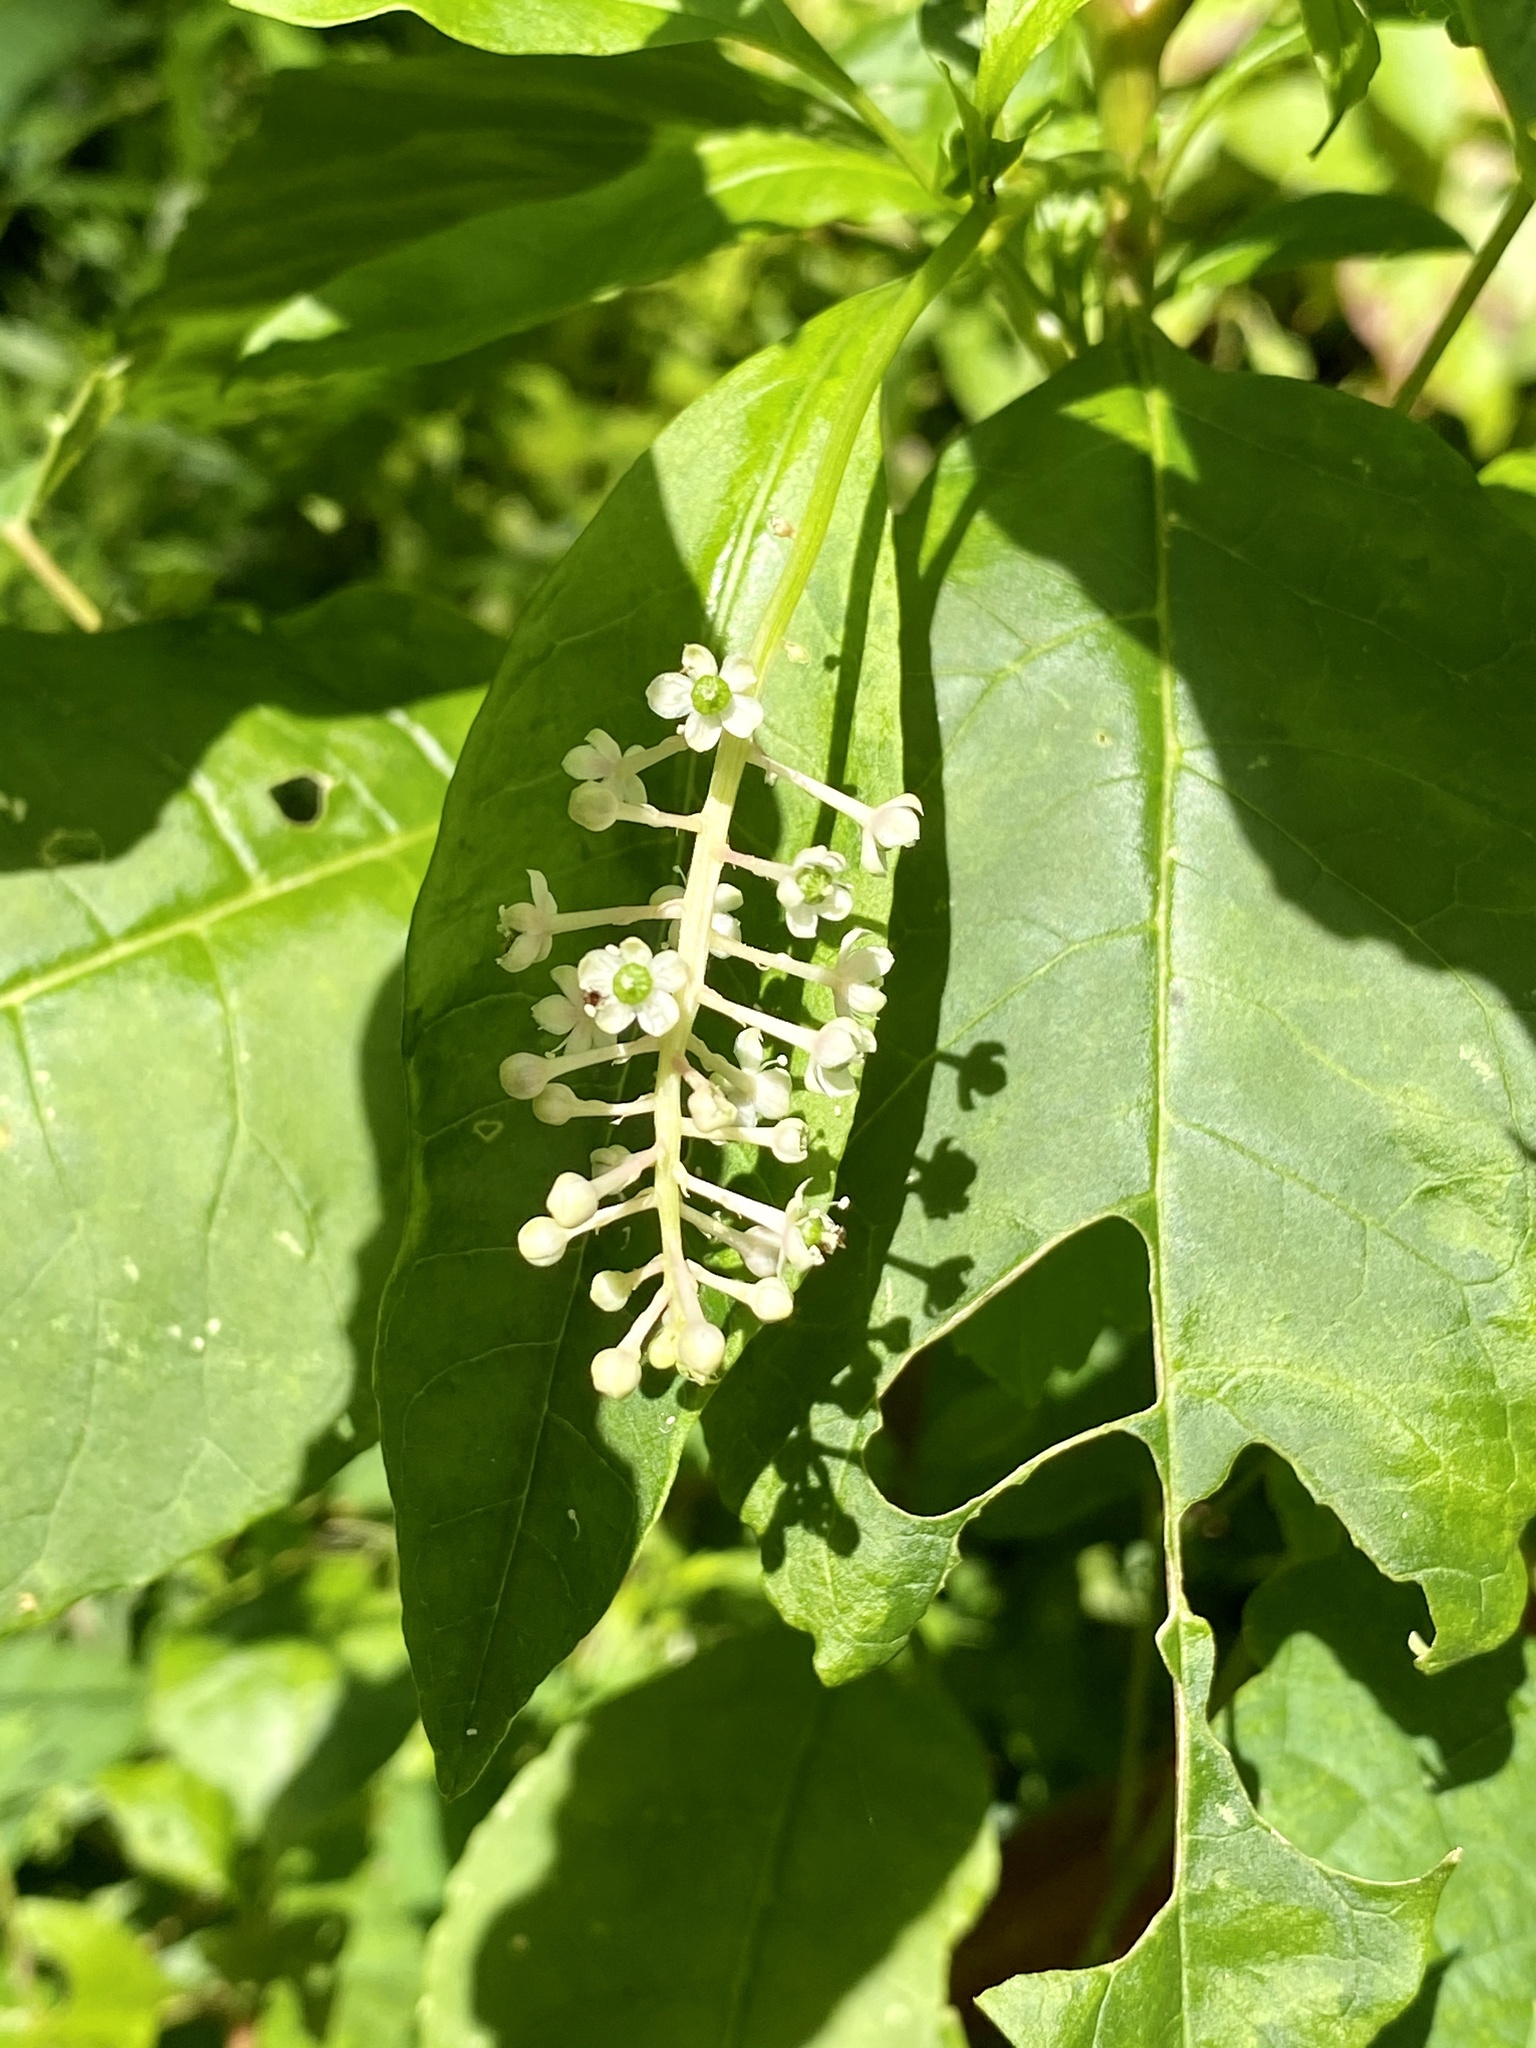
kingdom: Plantae
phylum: Tracheophyta
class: Magnoliopsida
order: Caryophyllales
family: Phytolaccaceae
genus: Phytolacca
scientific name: Phytolacca americana
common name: American pokeweed
